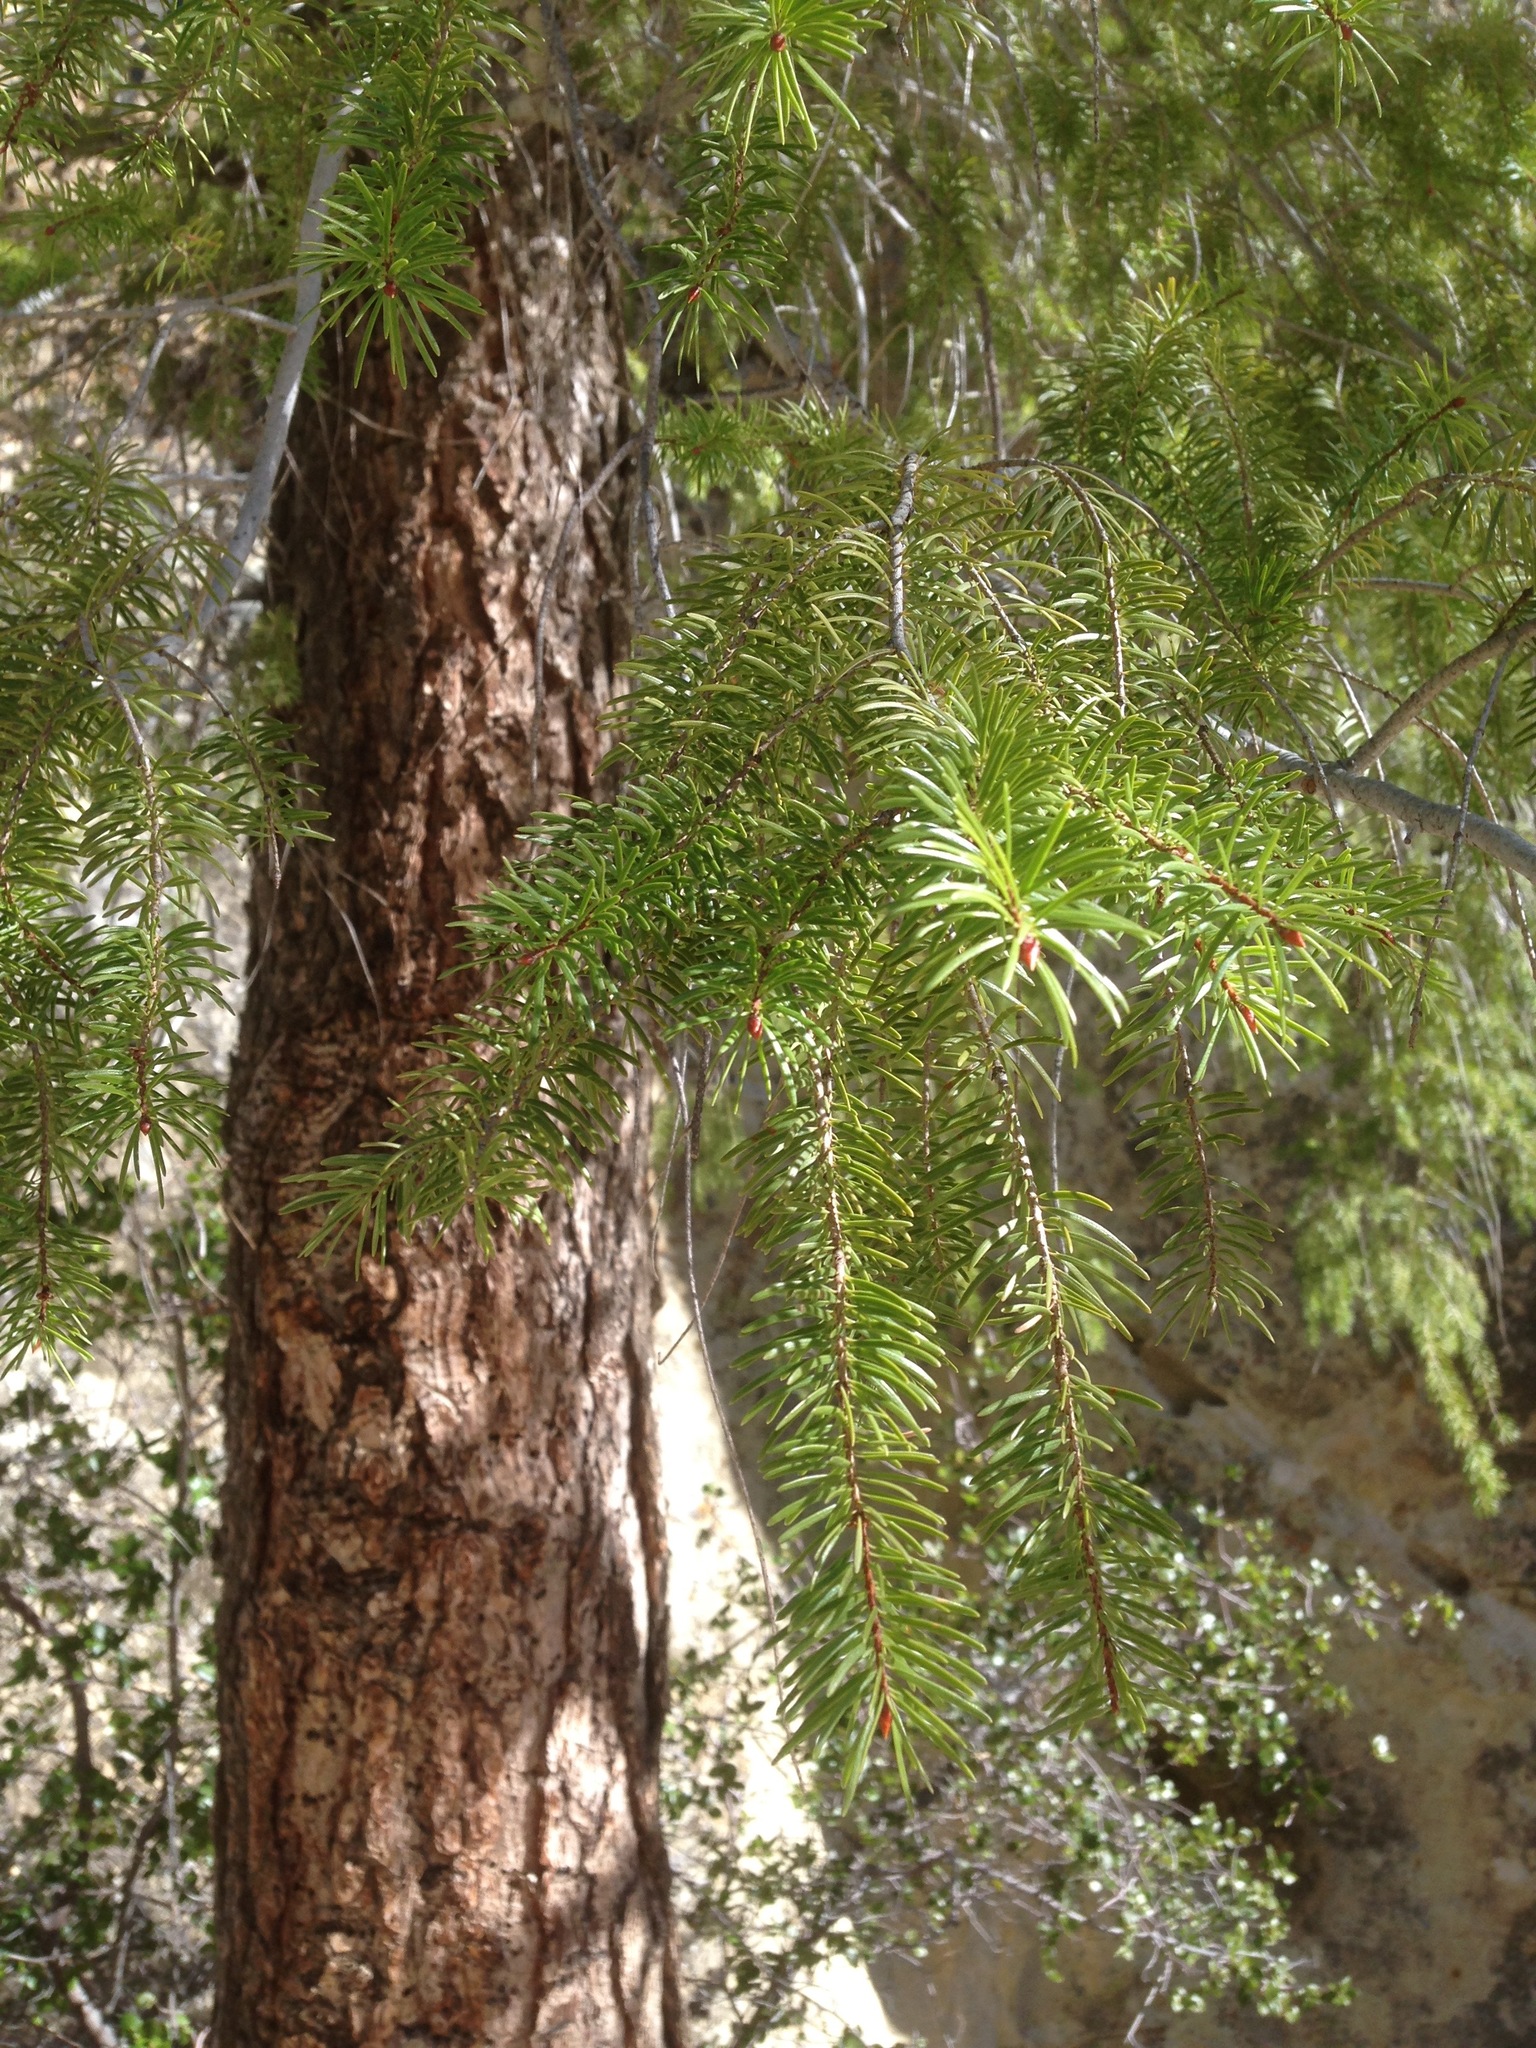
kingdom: Plantae
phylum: Tracheophyta
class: Pinopsida
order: Pinales
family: Pinaceae
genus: Pseudotsuga
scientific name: Pseudotsuga macrocarpa
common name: Big-cone douglas-fir
